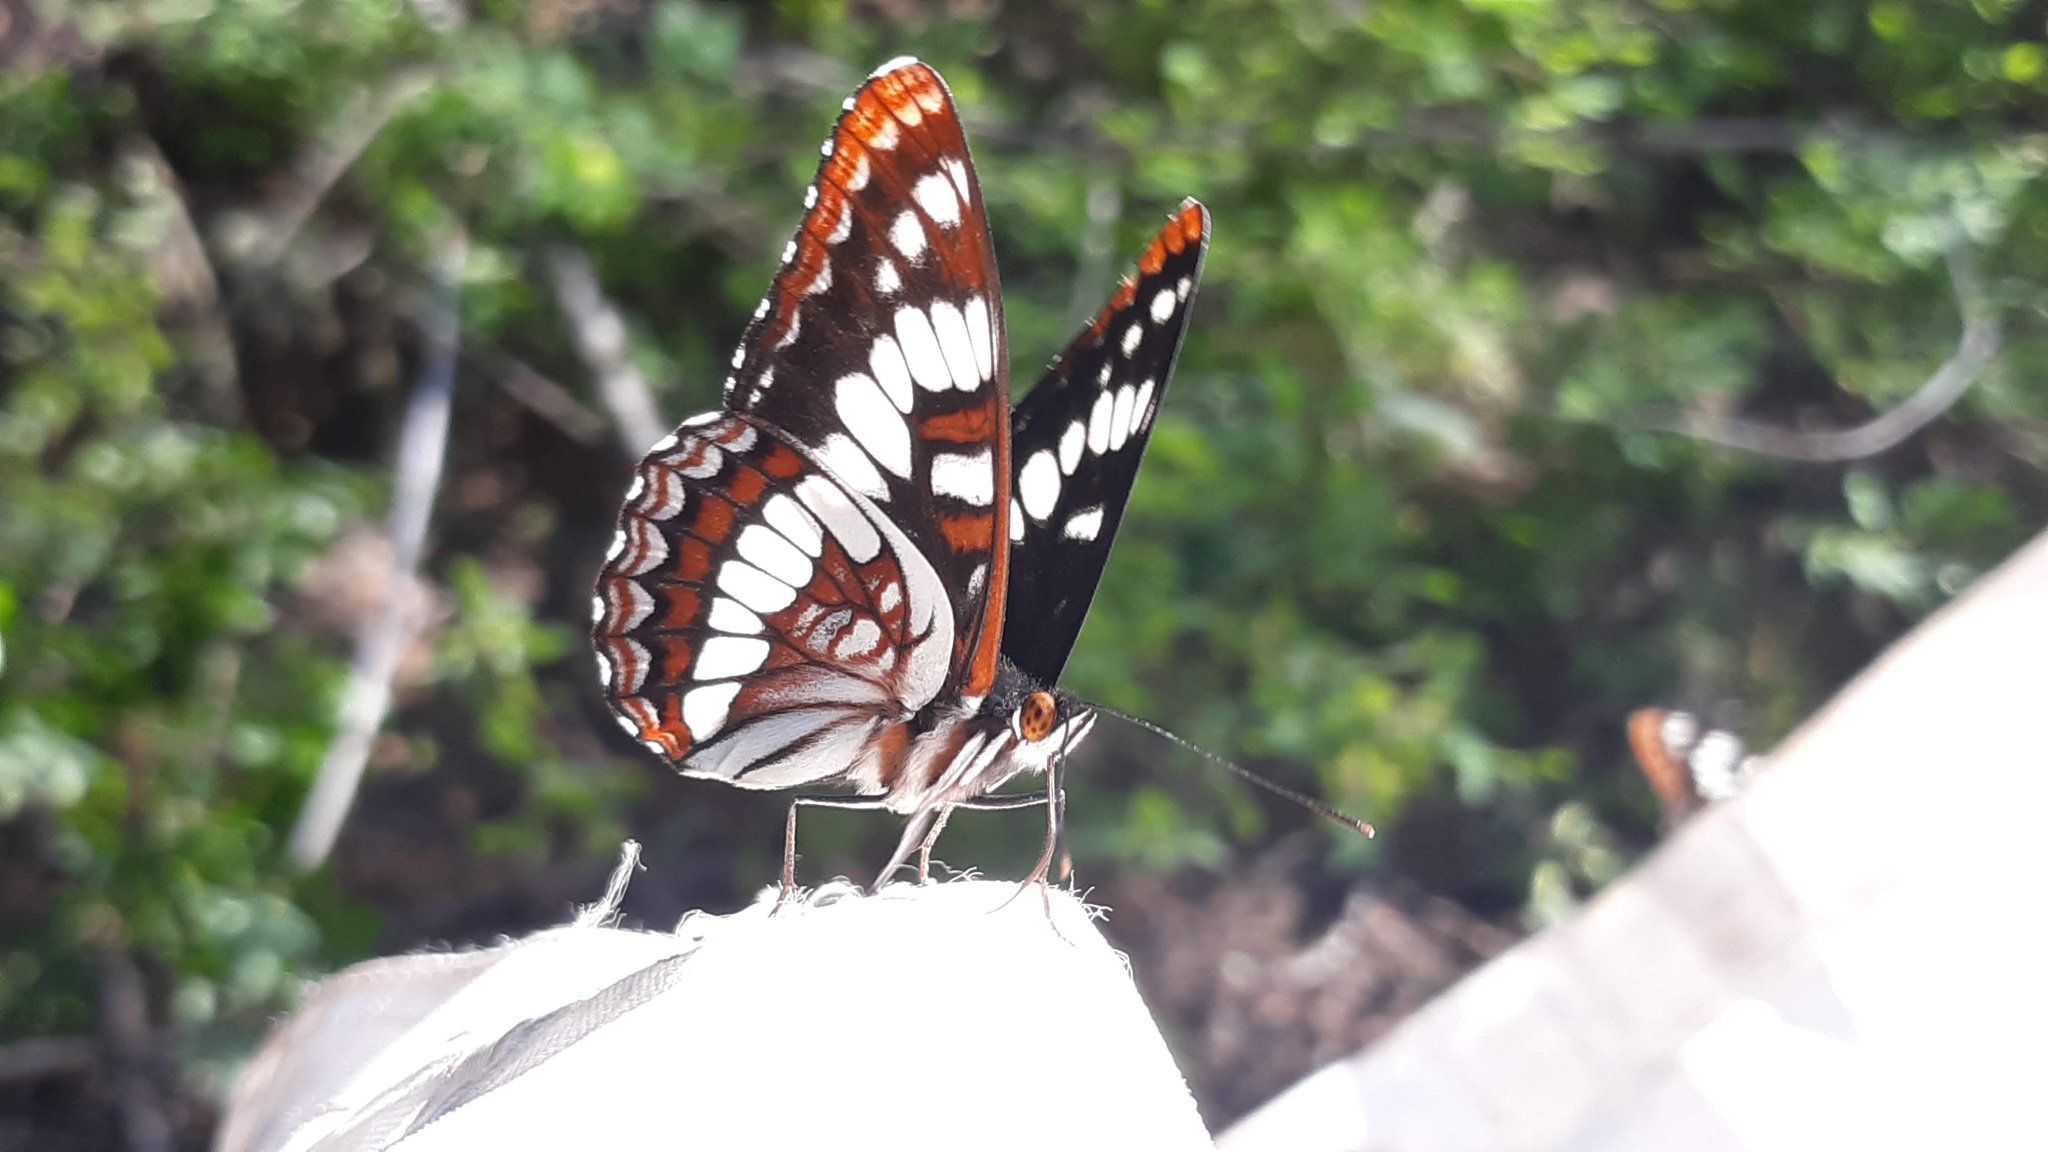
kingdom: Animalia
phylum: Arthropoda
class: Insecta
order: Lepidoptera
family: Nymphalidae
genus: Limenitis
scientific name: Limenitis lorquini
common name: Lorquin's admiral
